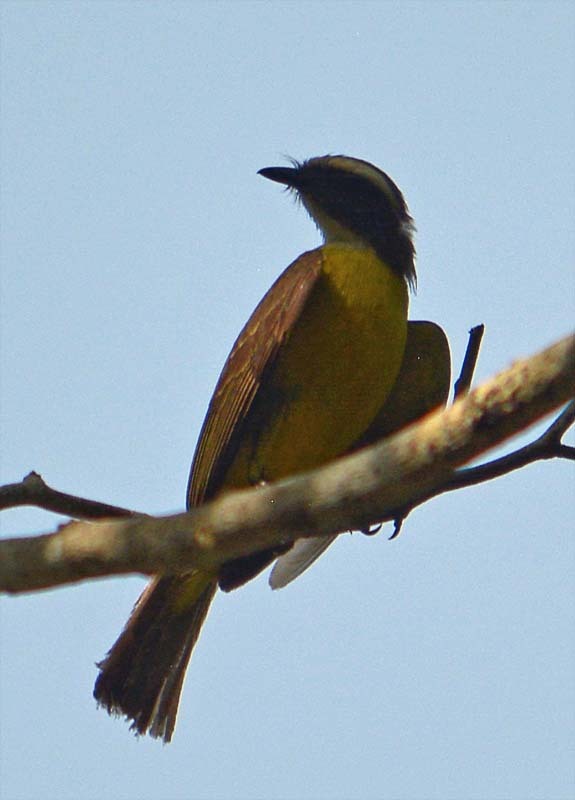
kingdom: Animalia
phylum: Chordata
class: Aves
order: Passeriformes
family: Tyrannidae
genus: Myiozetetes
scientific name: Myiozetetes similis
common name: Social flycatcher
